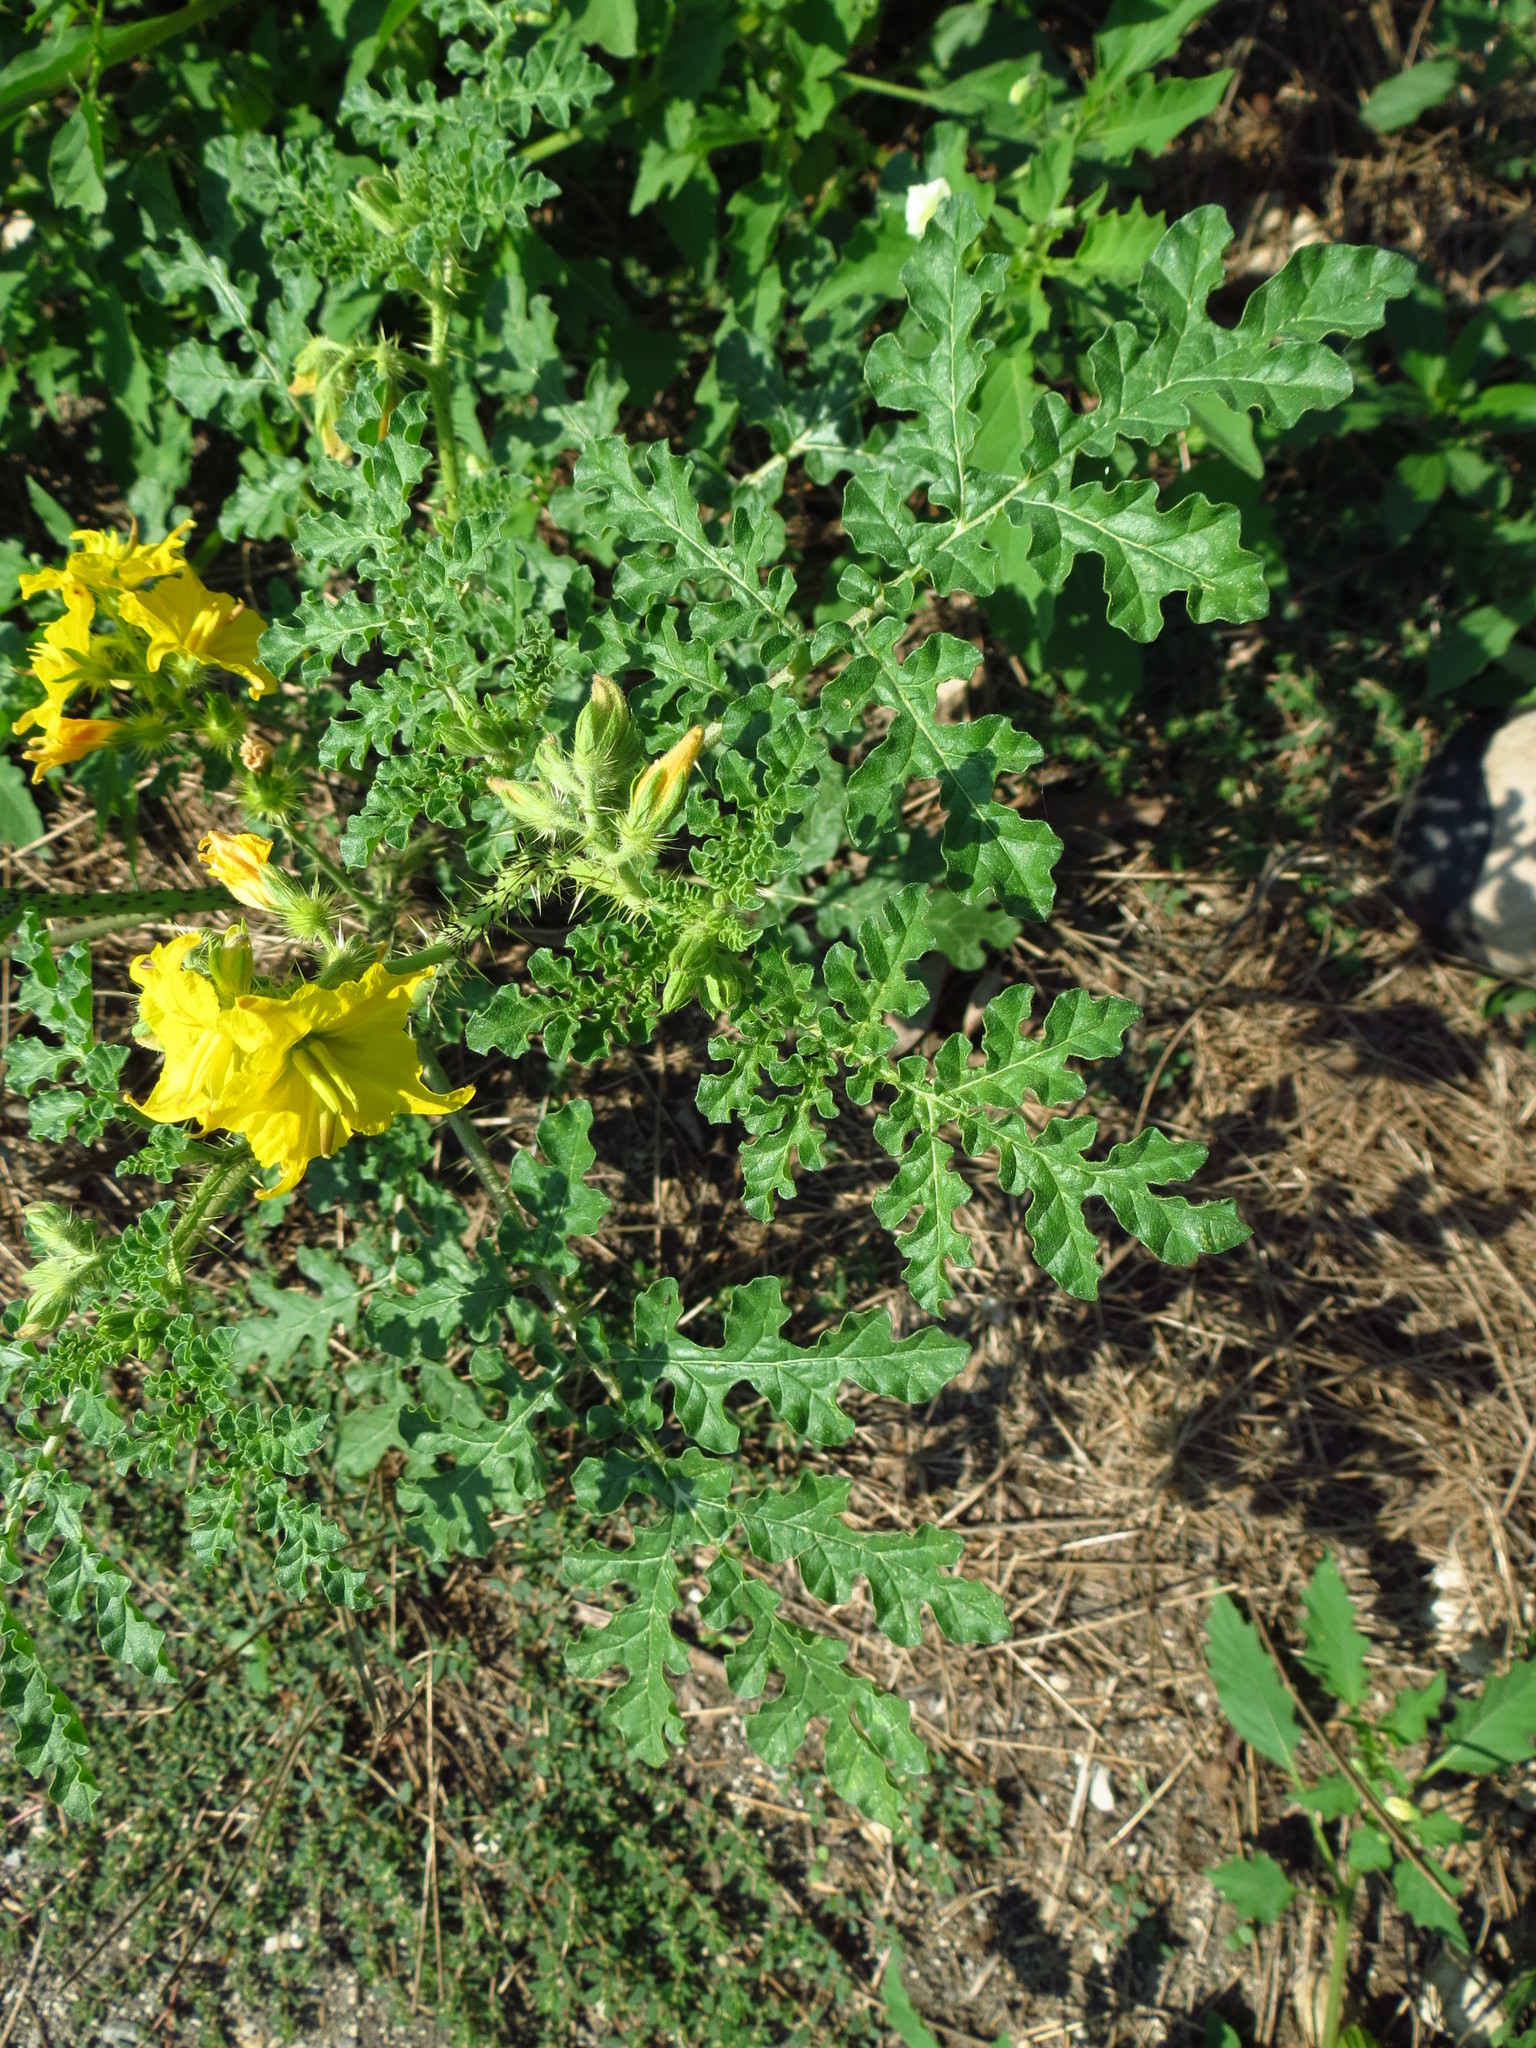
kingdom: Plantae
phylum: Tracheophyta
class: Magnoliopsida
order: Solanales
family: Solanaceae
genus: Solanum
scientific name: Solanum angustifolium
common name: Buffalobur nightshade
